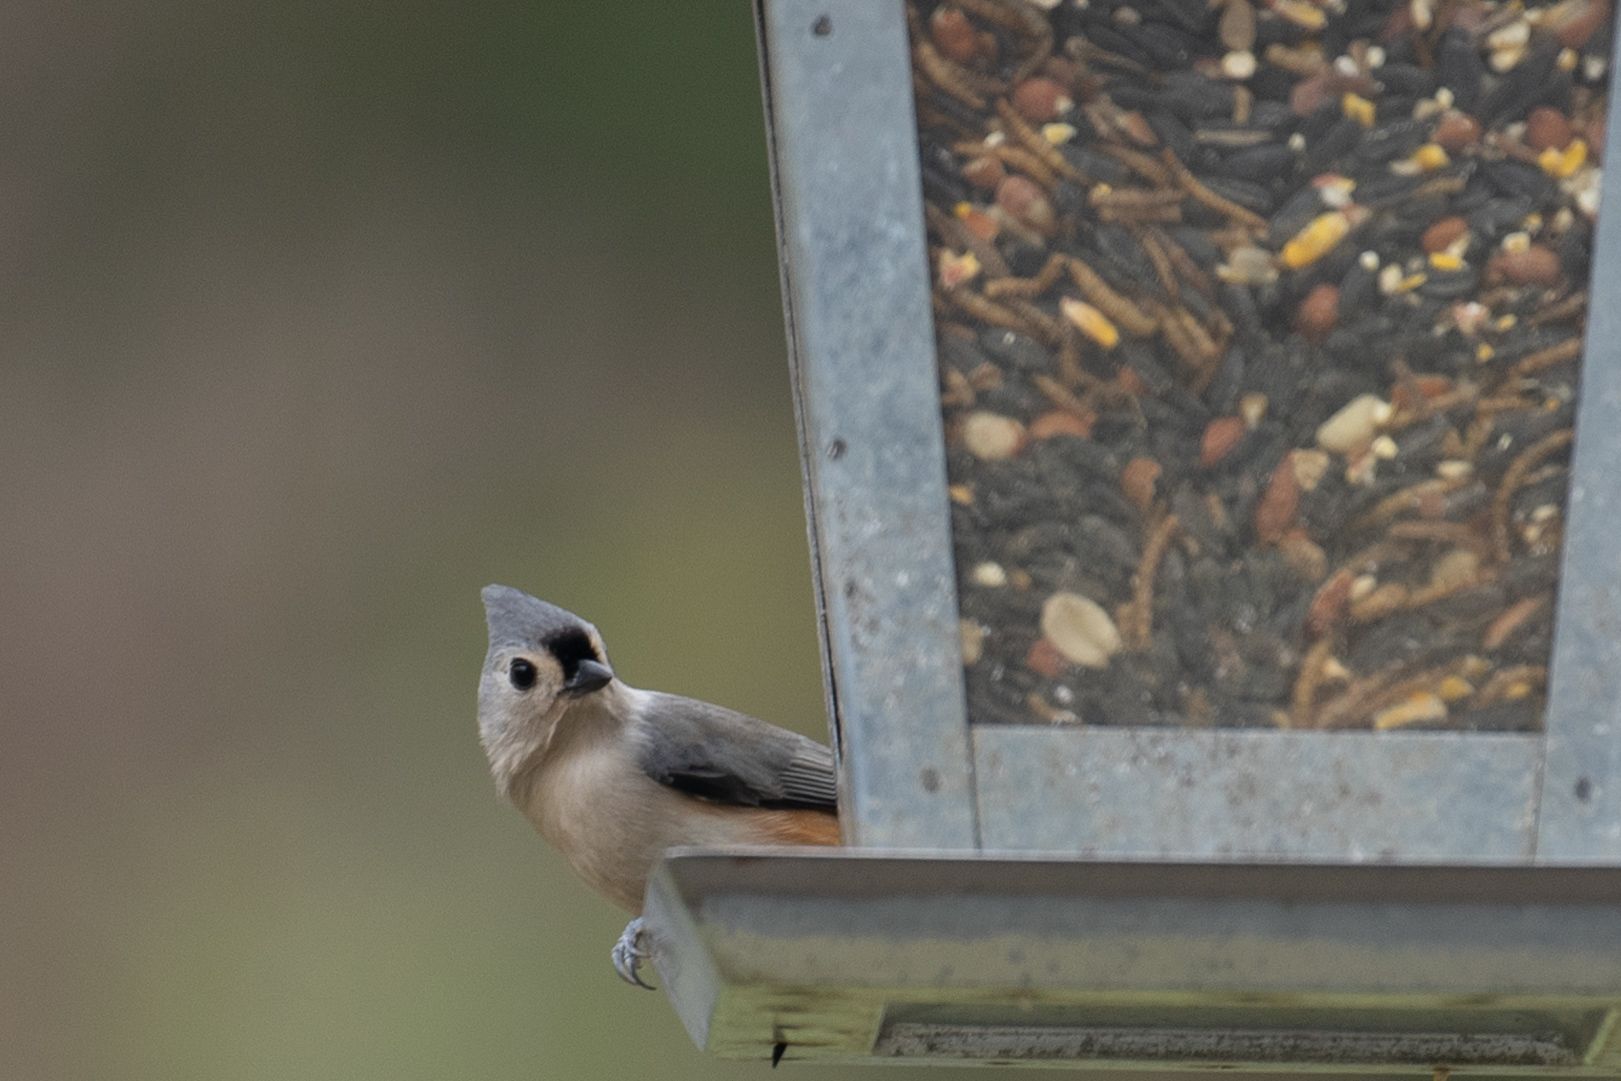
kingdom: Animalia
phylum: Chordata
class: Aves
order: Passeriformes
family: Paridae
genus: Baeolophus
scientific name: Baeolophus bicolor
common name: Tufted titmouse
